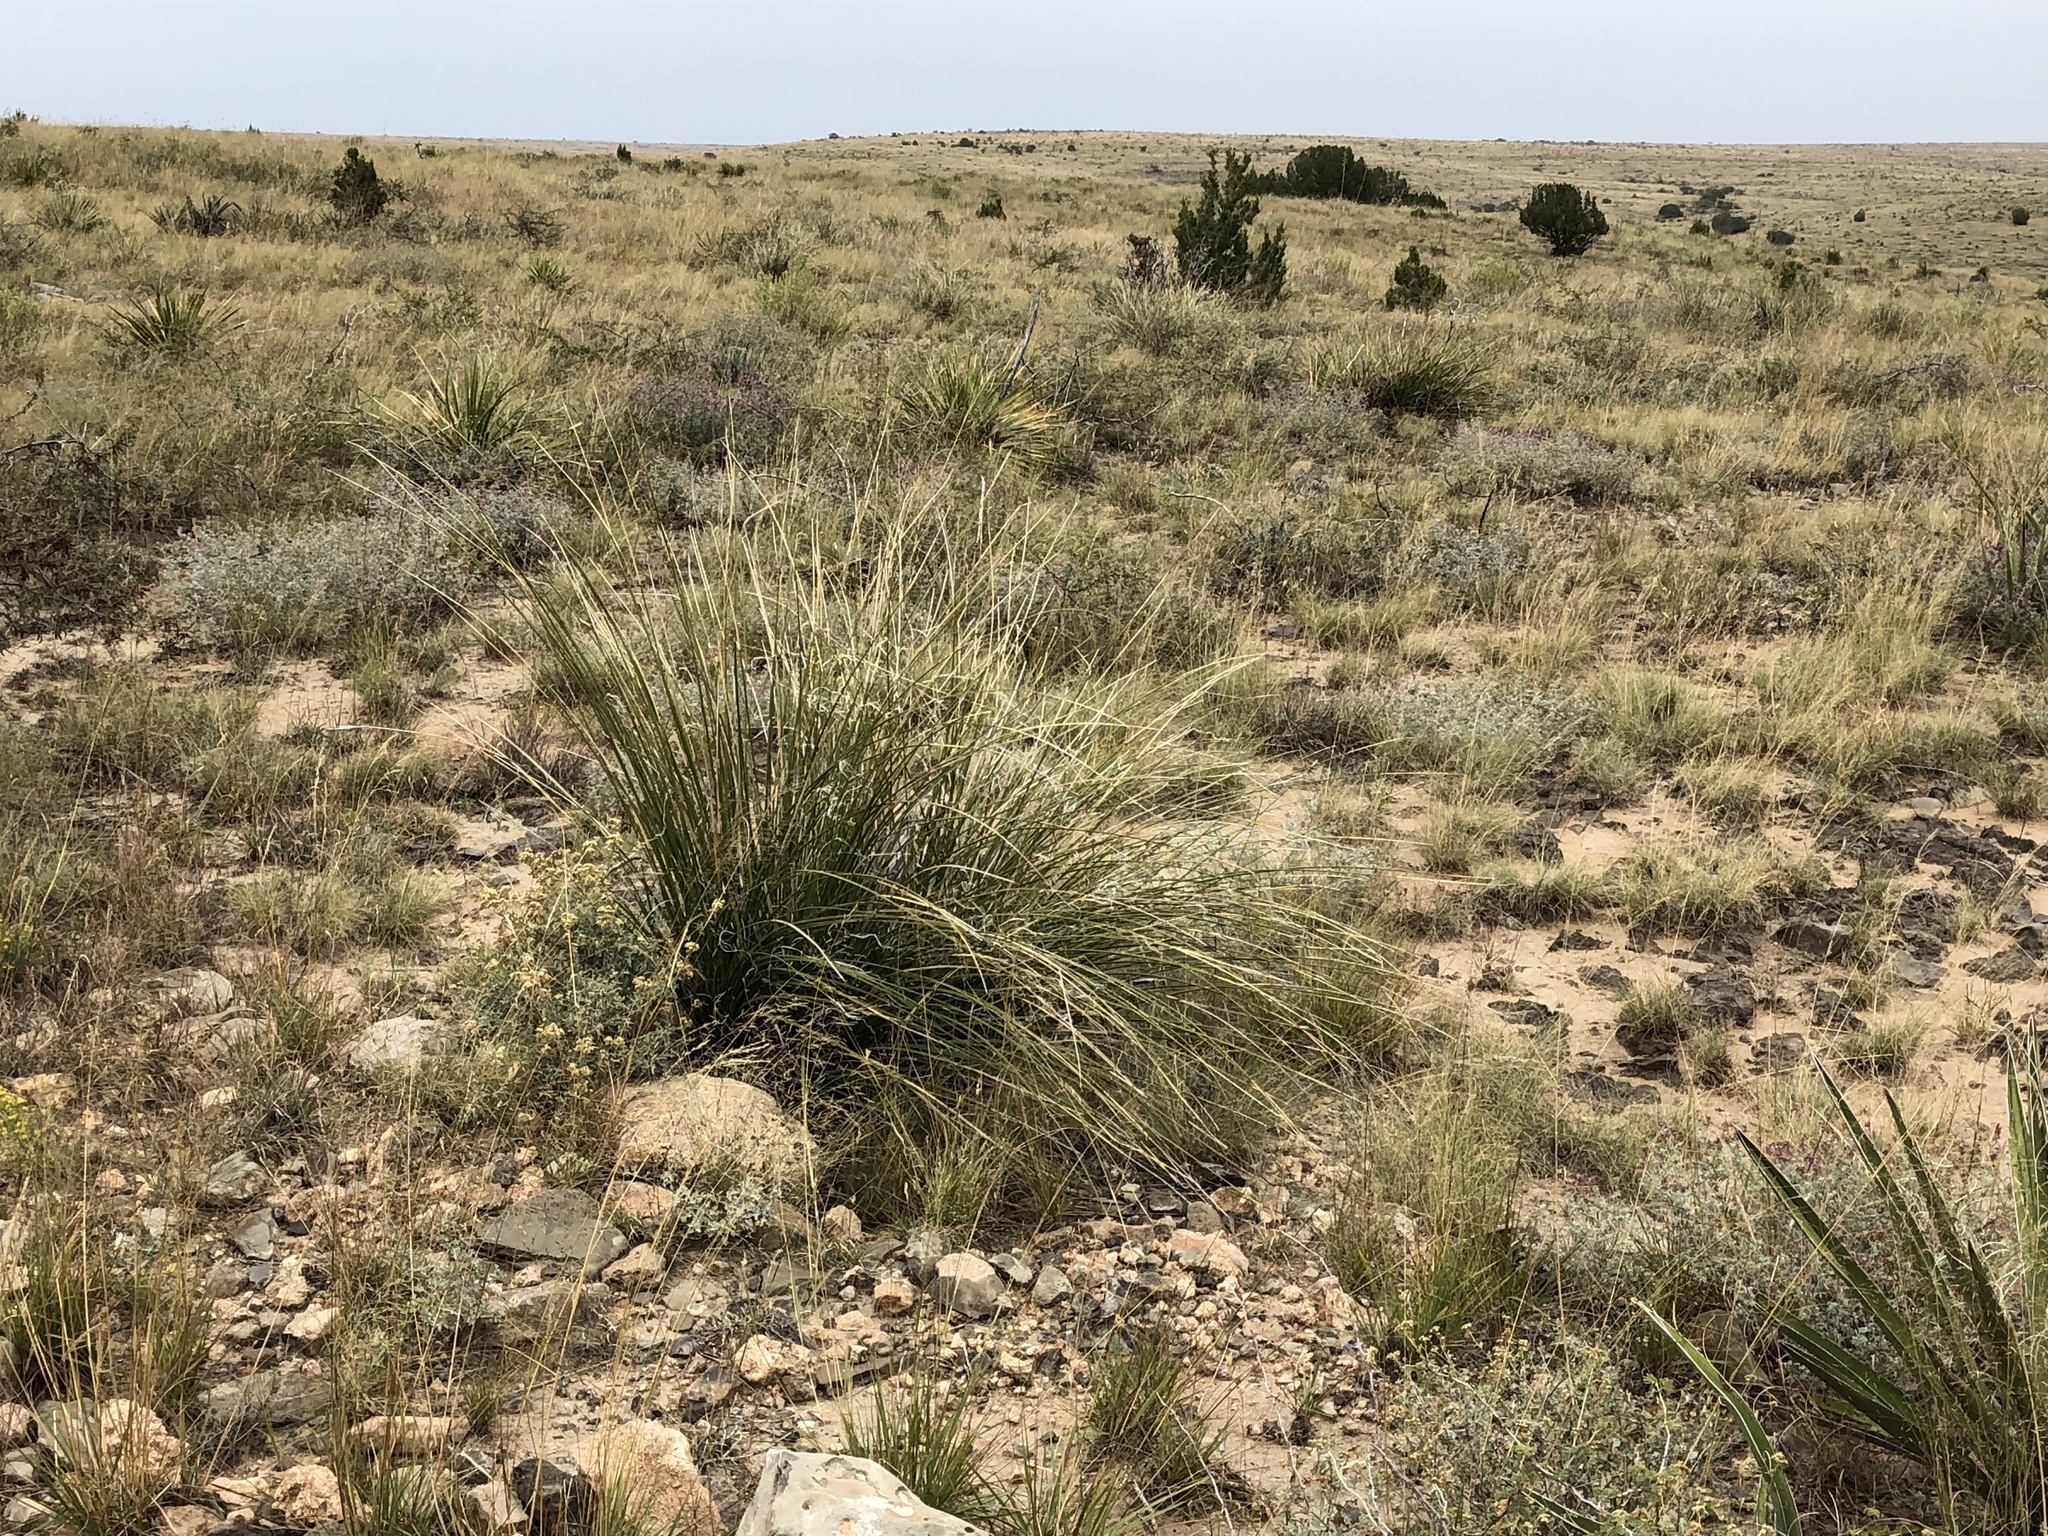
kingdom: Plantae
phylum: Tracheophyta
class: Liliopsida
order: Asparagales
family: Asparagaceae
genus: Nolina
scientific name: Nolina microcarpa
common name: Bear-grass
